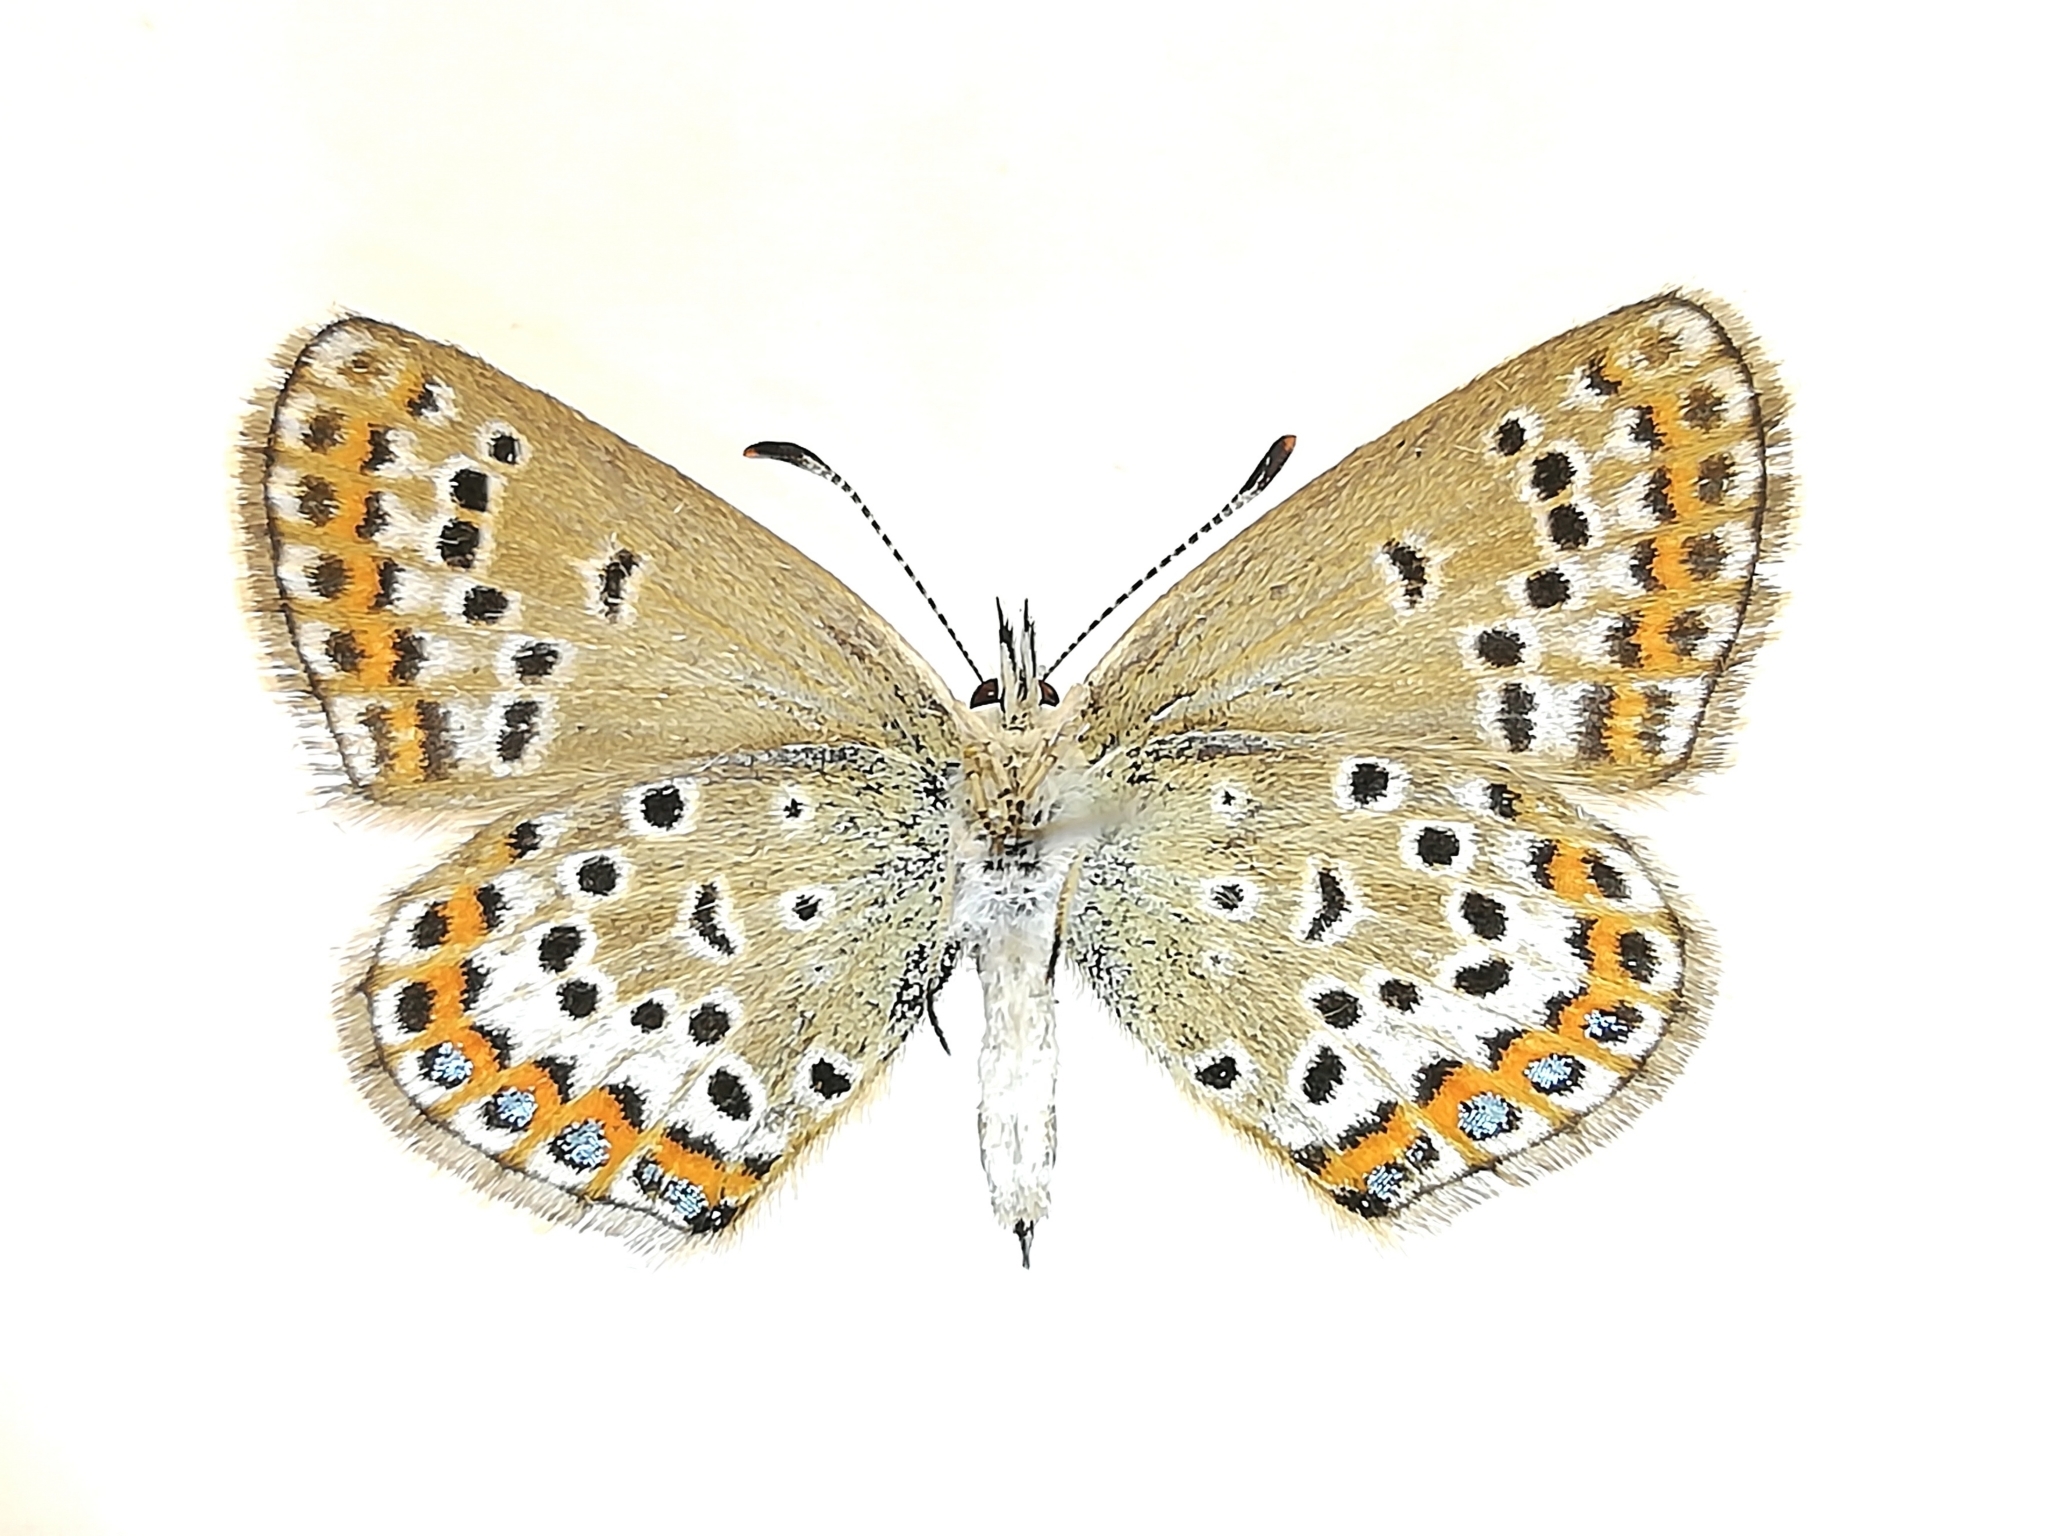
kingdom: Animalia
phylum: Arthropoda
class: Insecta
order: Lepidoptera
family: Lycaenidae
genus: Plebejus
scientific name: Plebejus argus
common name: Silver-studded blue
